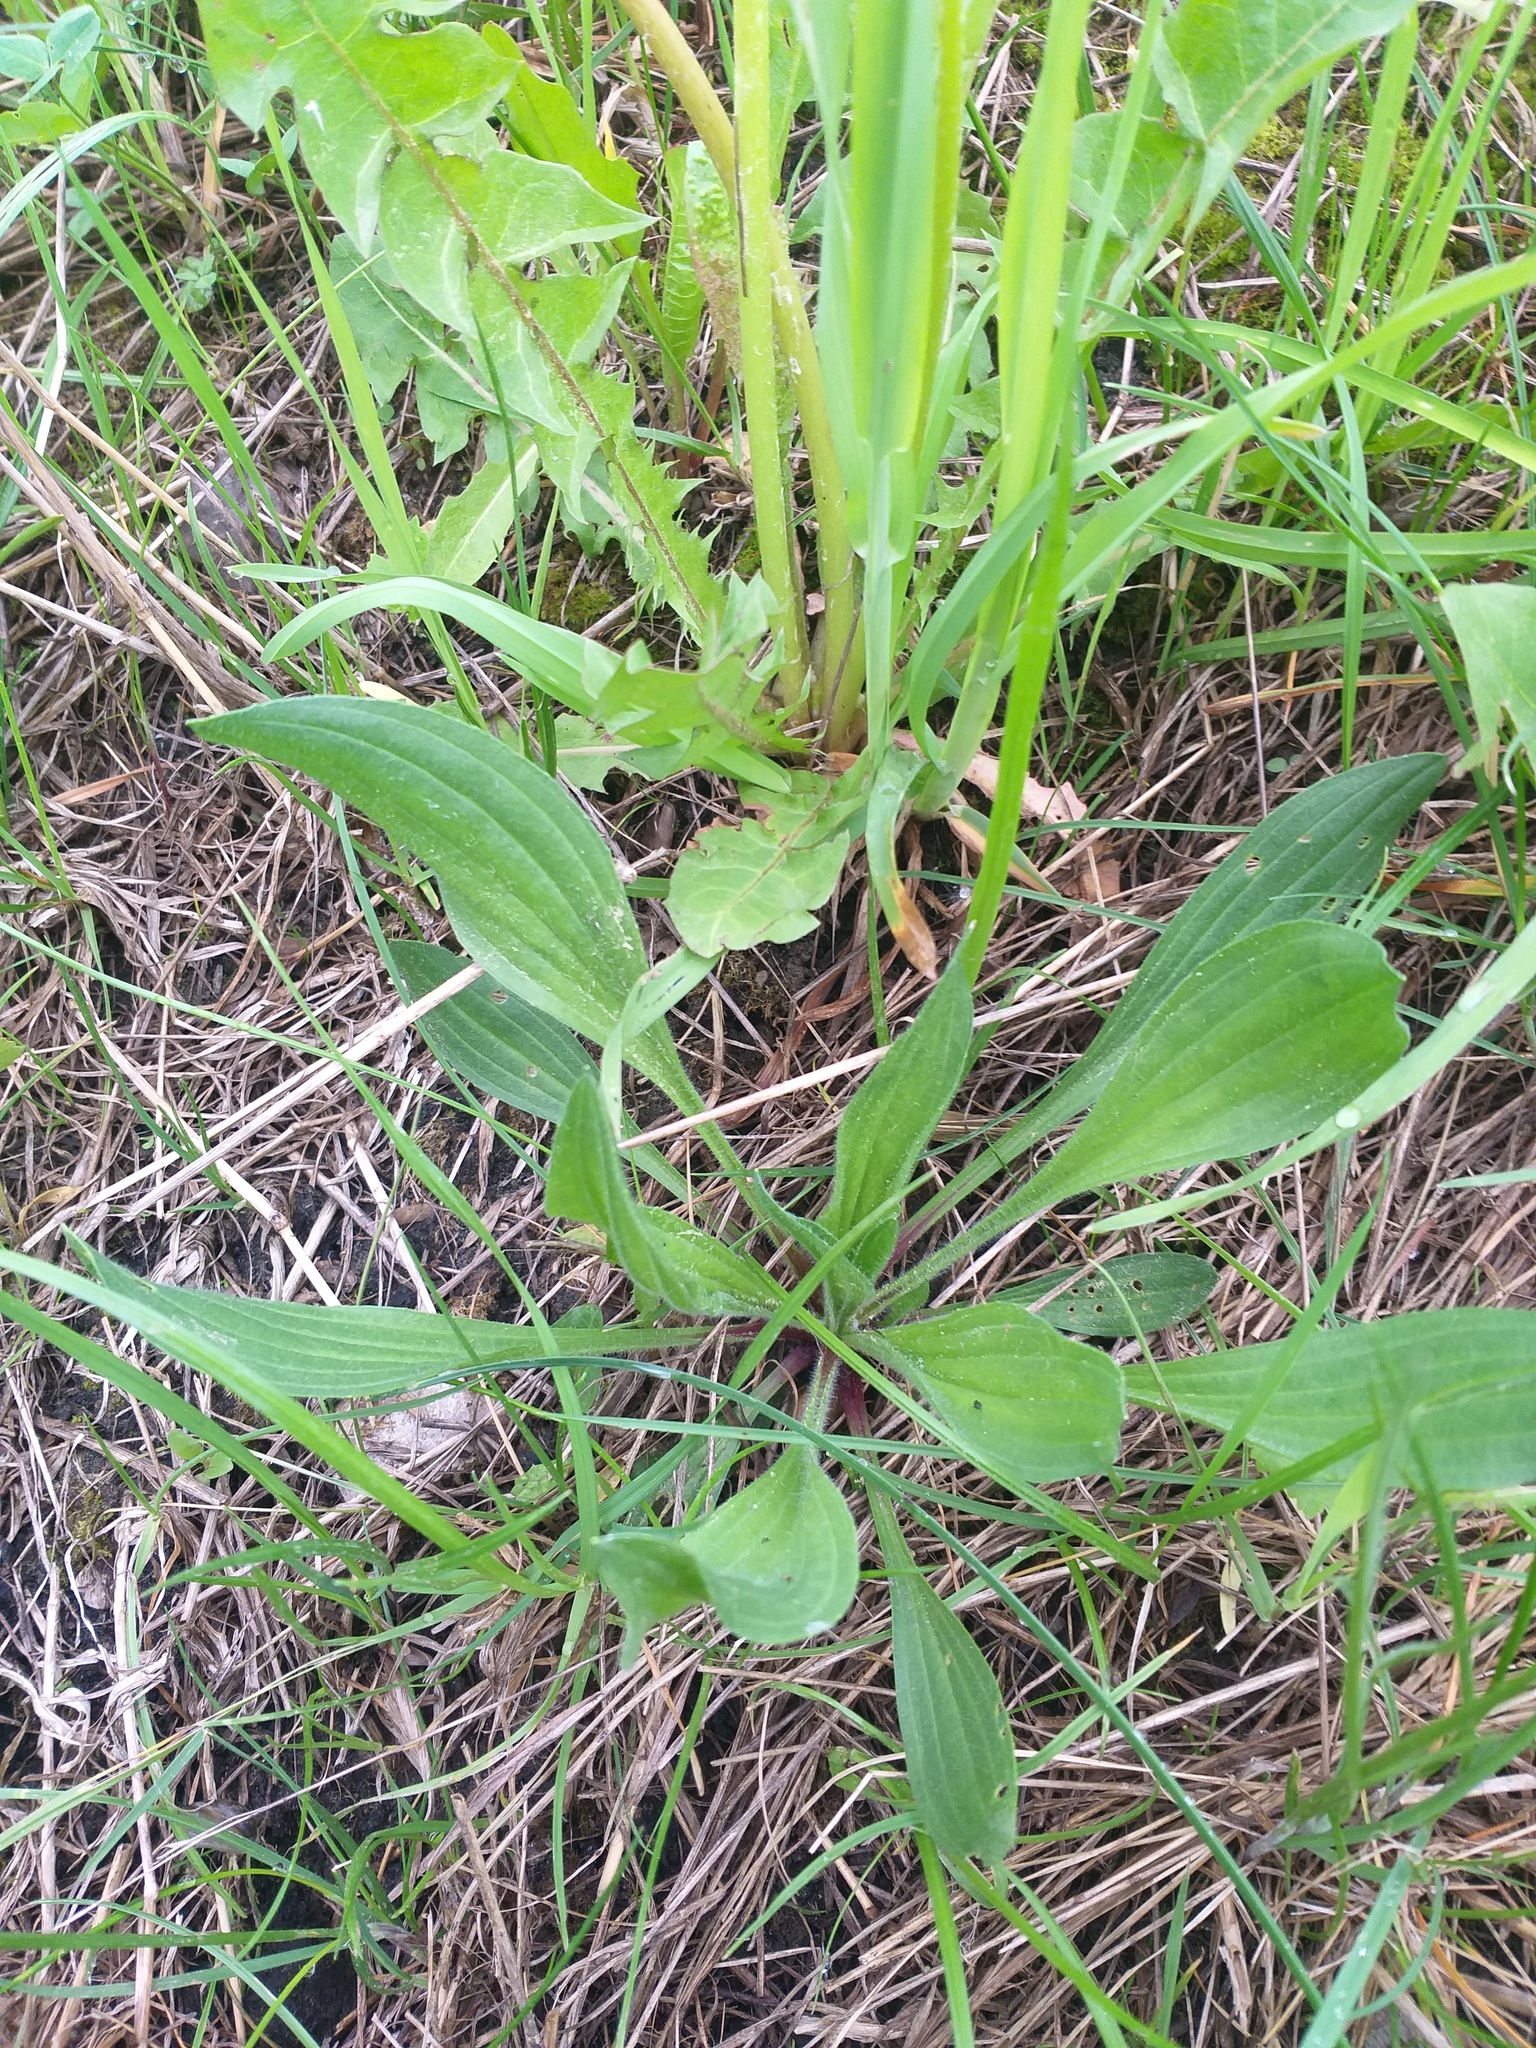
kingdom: Plantae
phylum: Tracheophyta
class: Magnoliopsida
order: Lamiales
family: Plantaginaceae
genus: Plantago
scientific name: Plantago urvillei
